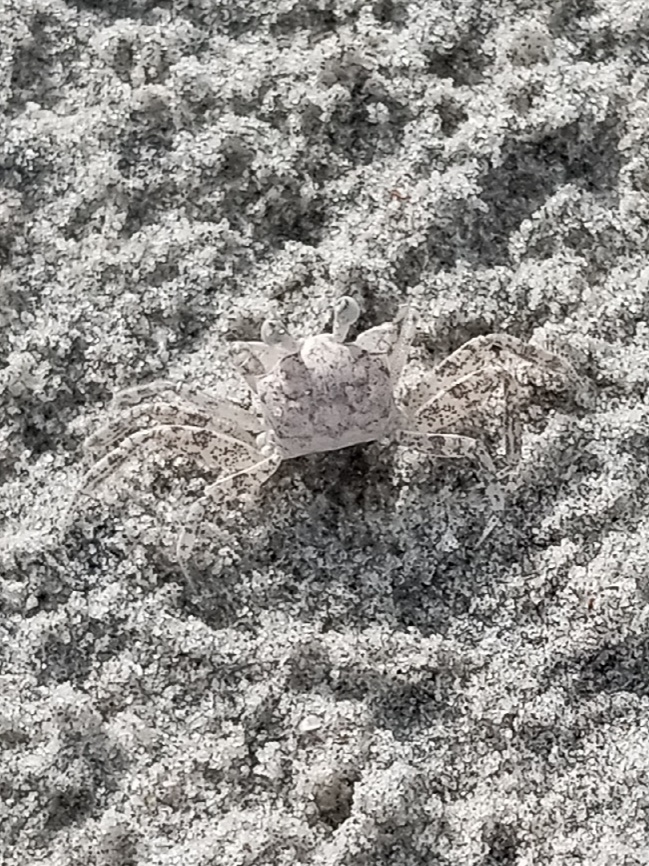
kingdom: Animalia
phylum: Arthropoda
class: Malacostraca
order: Decapoda
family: Ocypodidae
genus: Ocypode
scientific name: Ocypode quadrata
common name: Ghost crab
